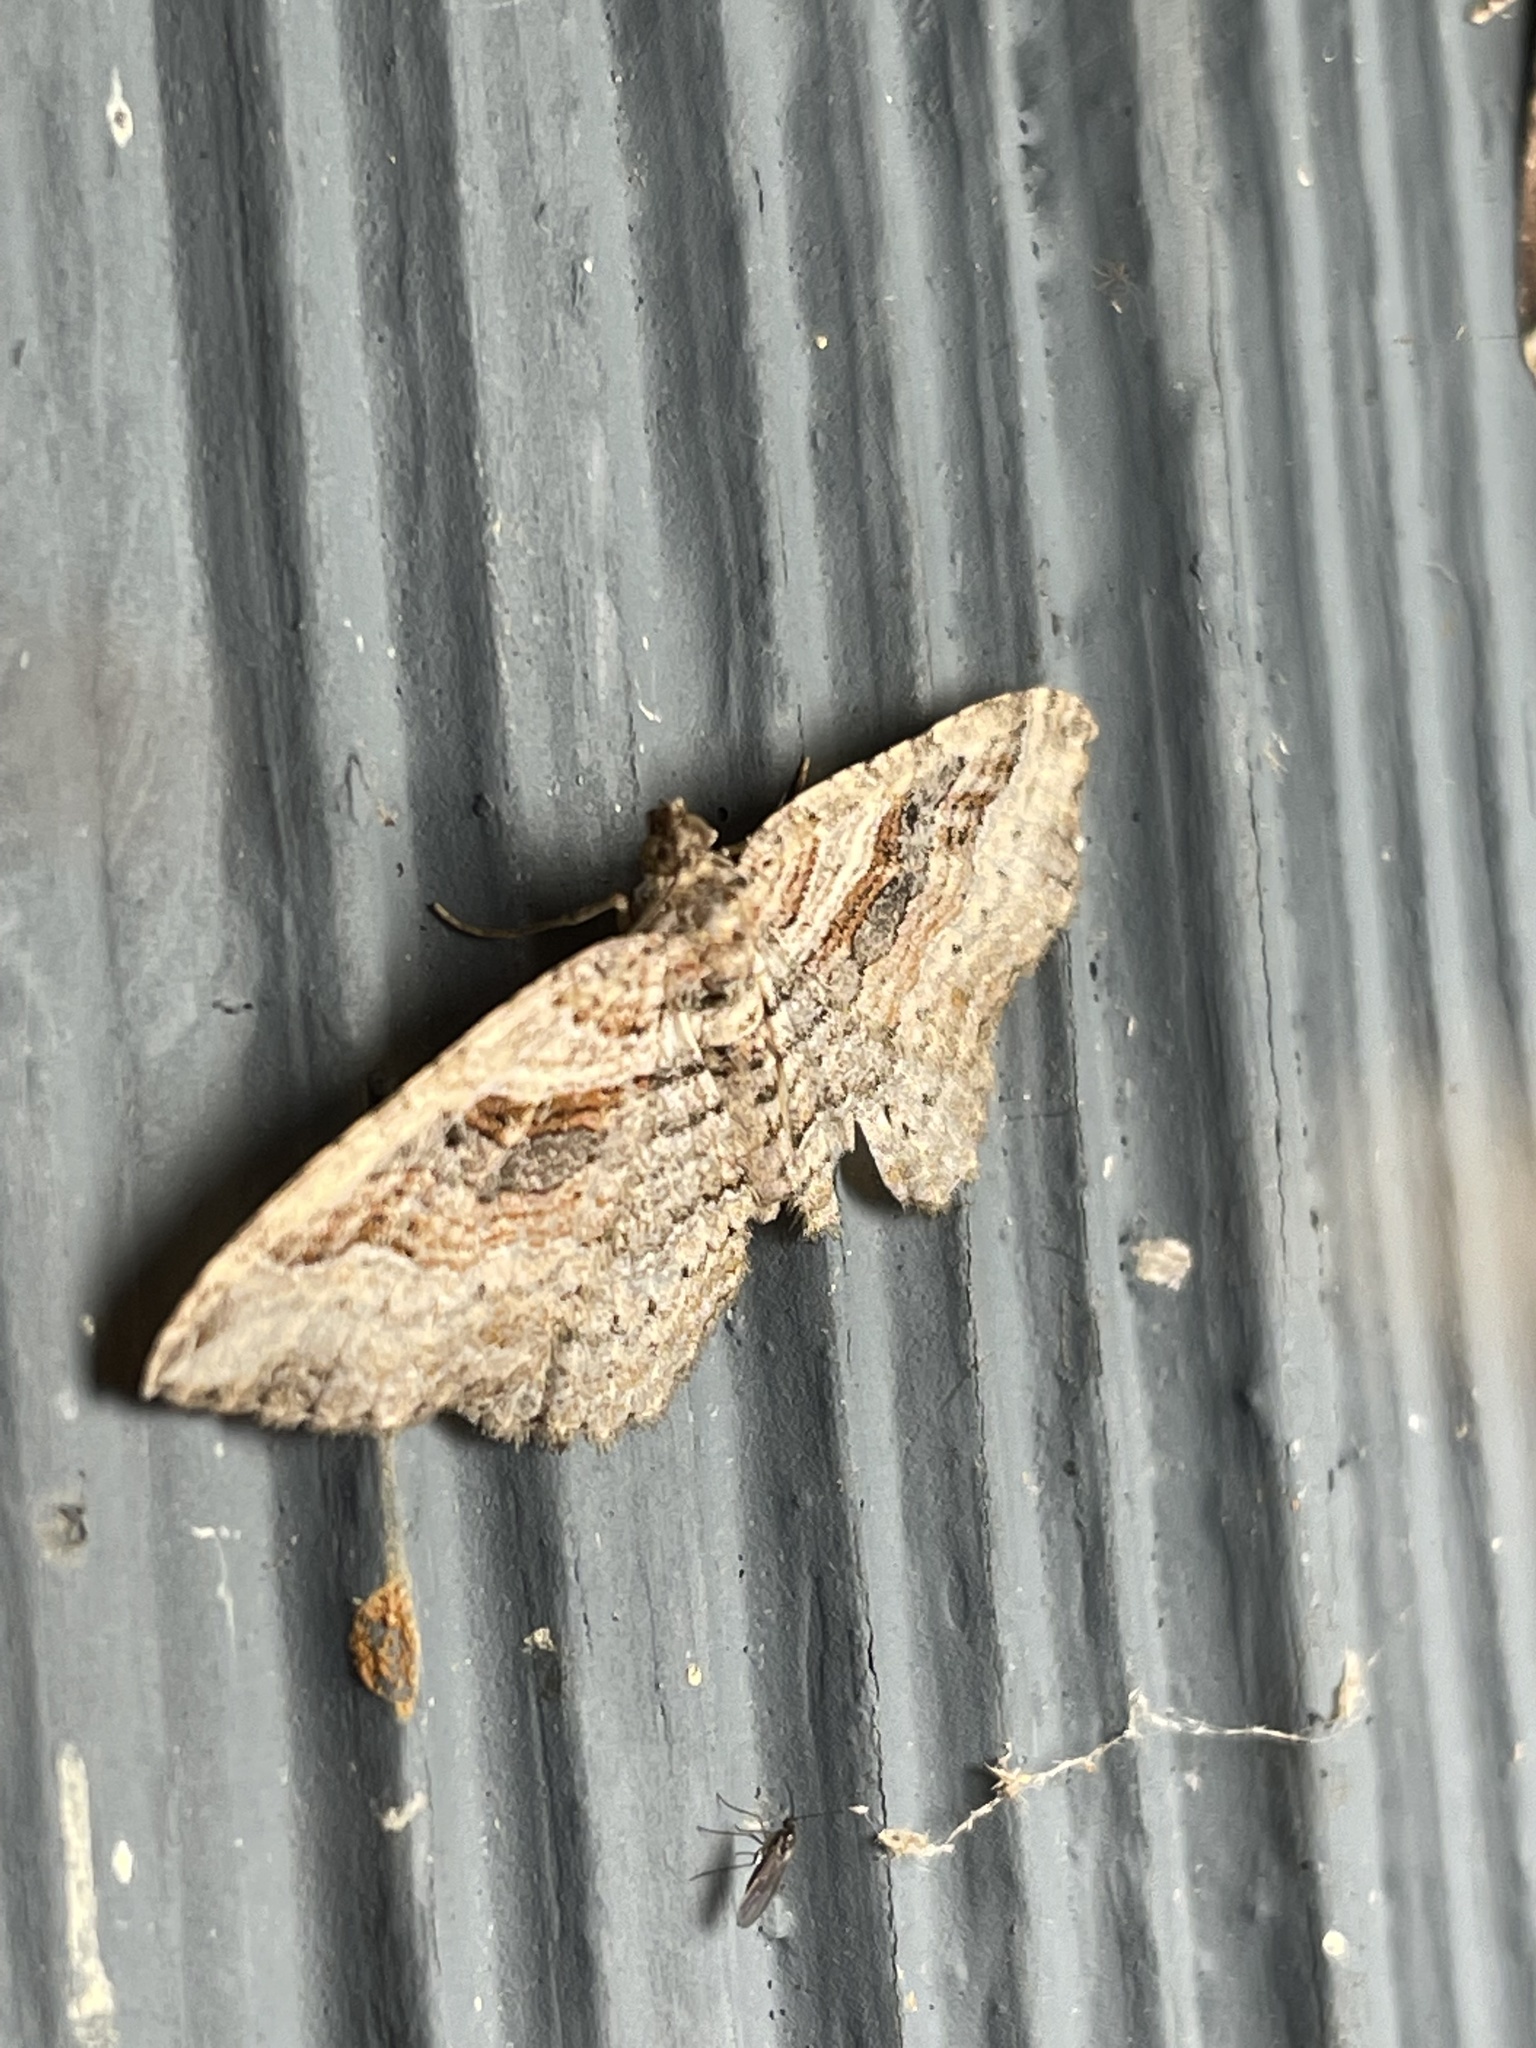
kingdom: Animalia
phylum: Arthropoda
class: Insecta
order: Lepidoptera
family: Geometridae
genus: Costaconvexa
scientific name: Costaconvexa centrostrigaria
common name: Bent-line carpet
